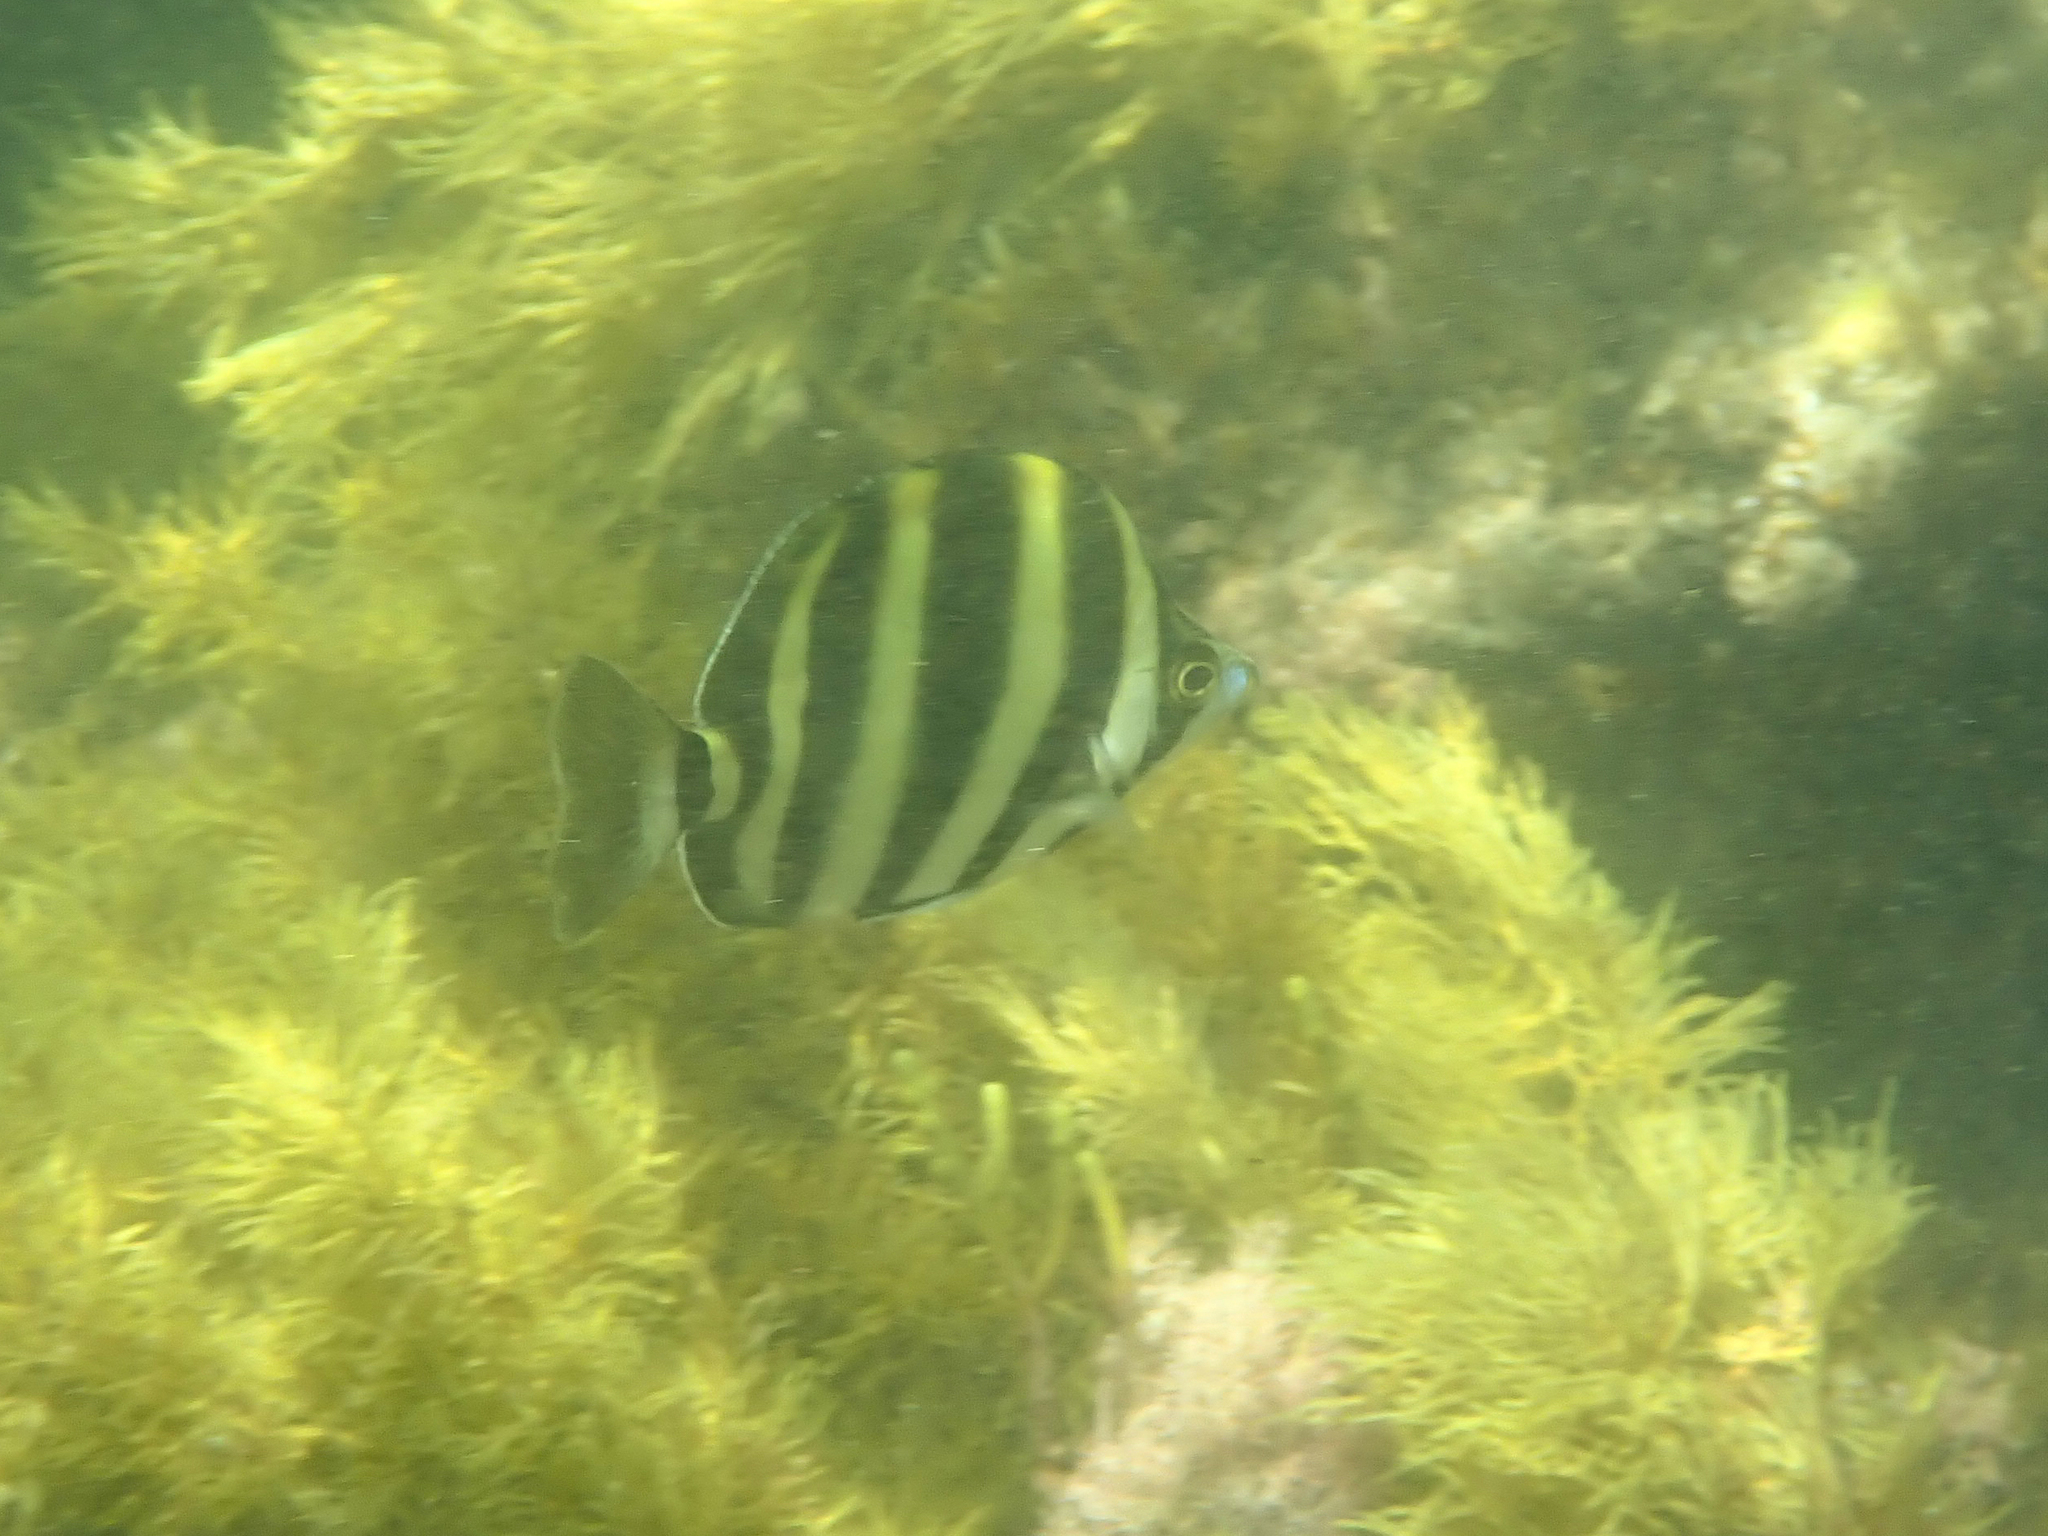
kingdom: Animalia
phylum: Chordata
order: Perciformes
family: Kyphosidae
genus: Tilodon
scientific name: Tilodon sexfasciatus
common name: Moonlighter
